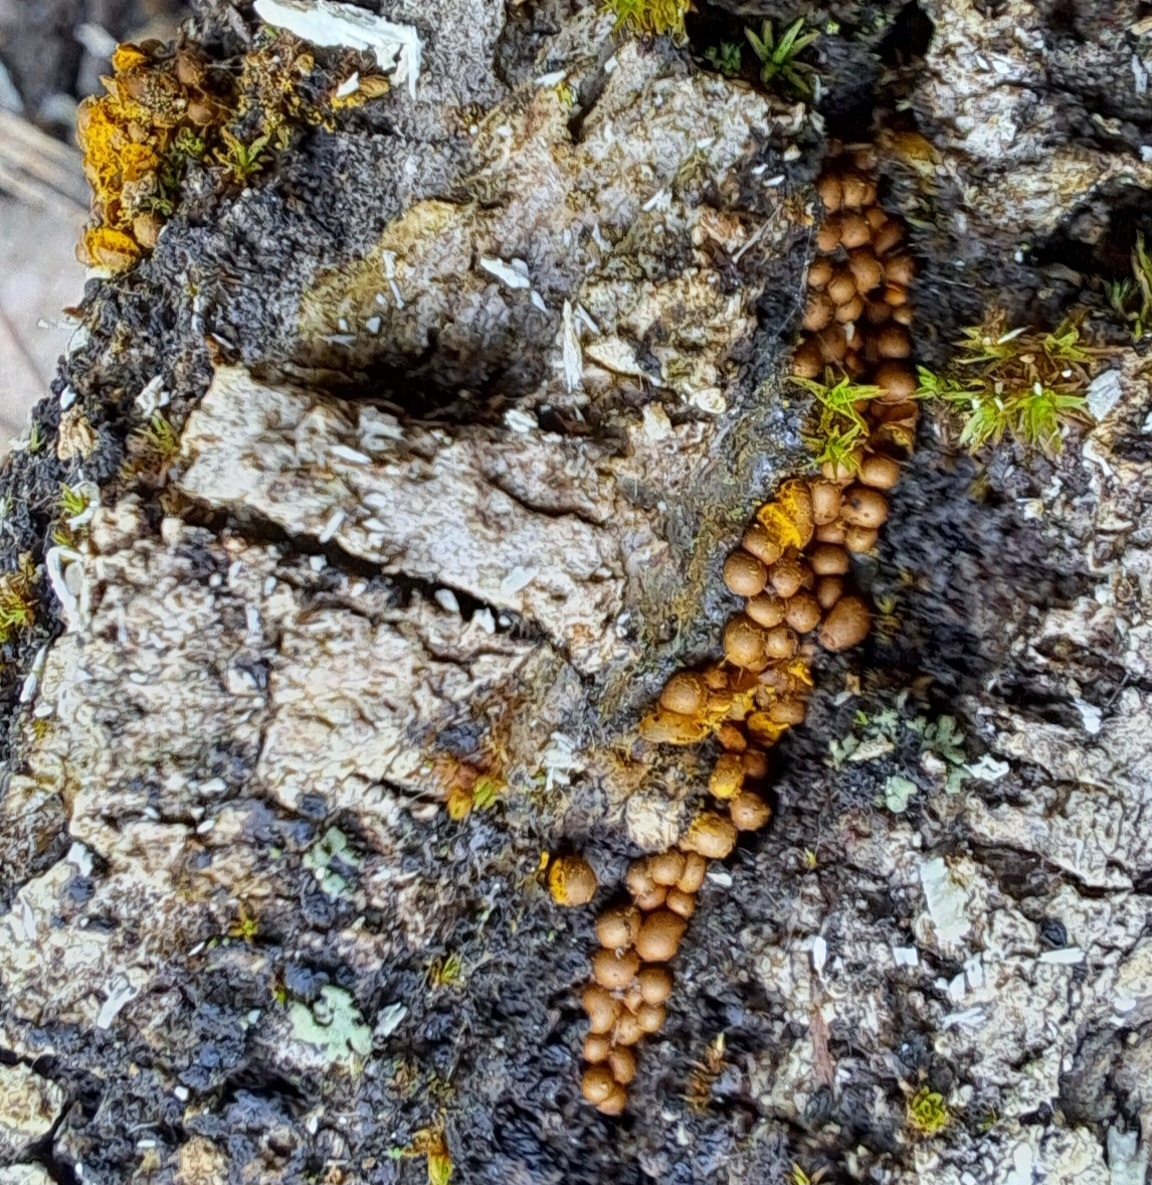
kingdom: Protozoa
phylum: Mycetozoa
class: Myxomycetes
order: Trichiales
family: Trichiaceae
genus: Perichaena
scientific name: Perichaena corticalis
